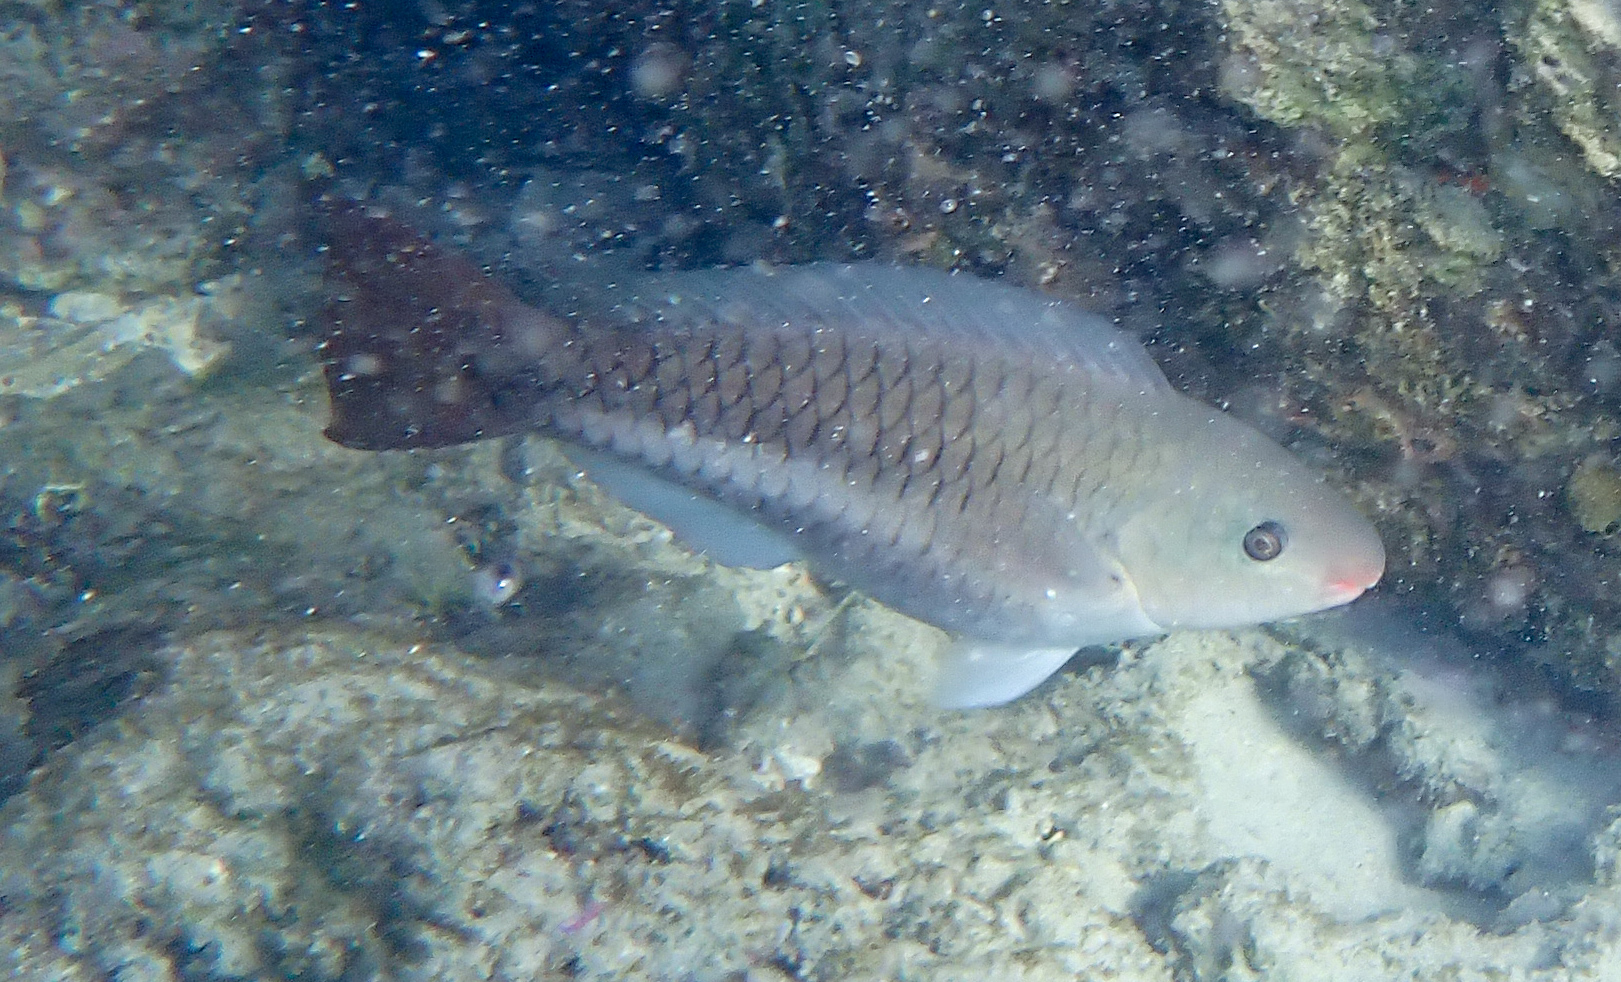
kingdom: Animalia
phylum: Chordata
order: Perciformes
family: Scaridae
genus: Scarus
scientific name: Scarus vetula
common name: Queen parrotfish
